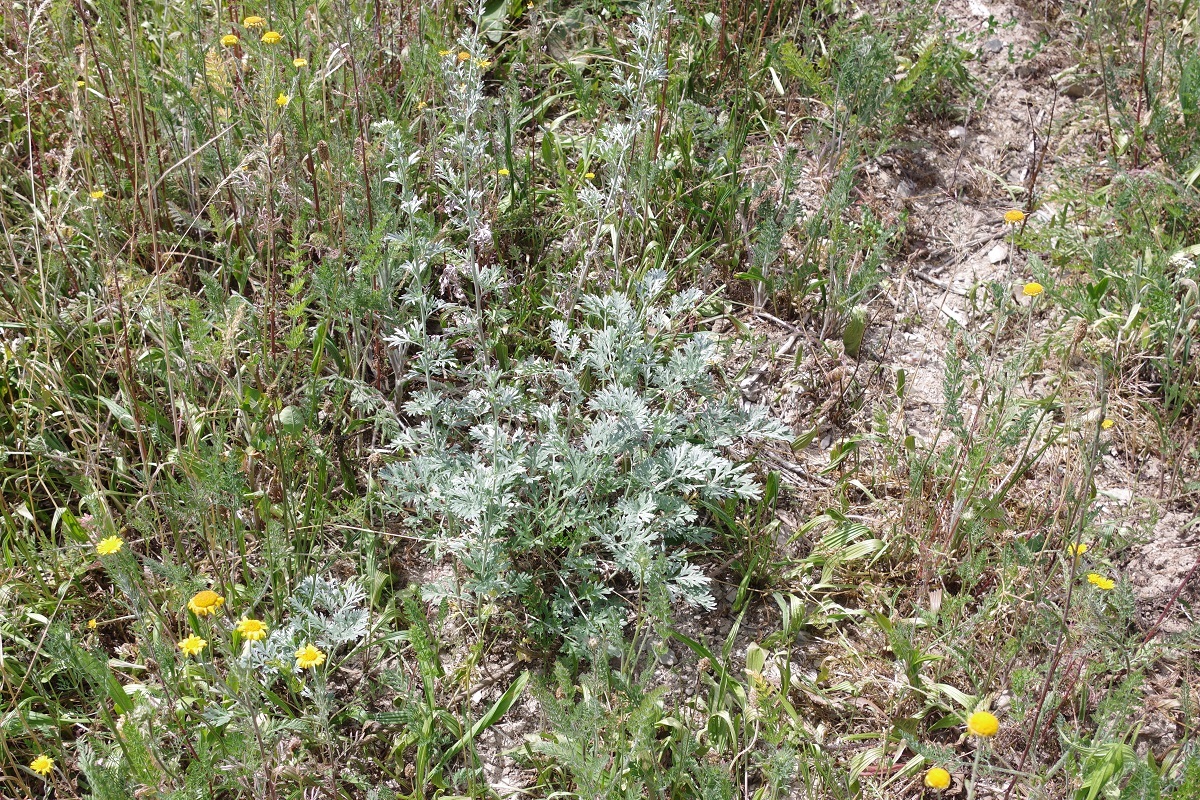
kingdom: Plantae
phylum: Tracheophyta
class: Magnoliopsida
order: Asterales
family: Asteraceae
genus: Artemisia
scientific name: Artemisia absinthium
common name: Wormwood
